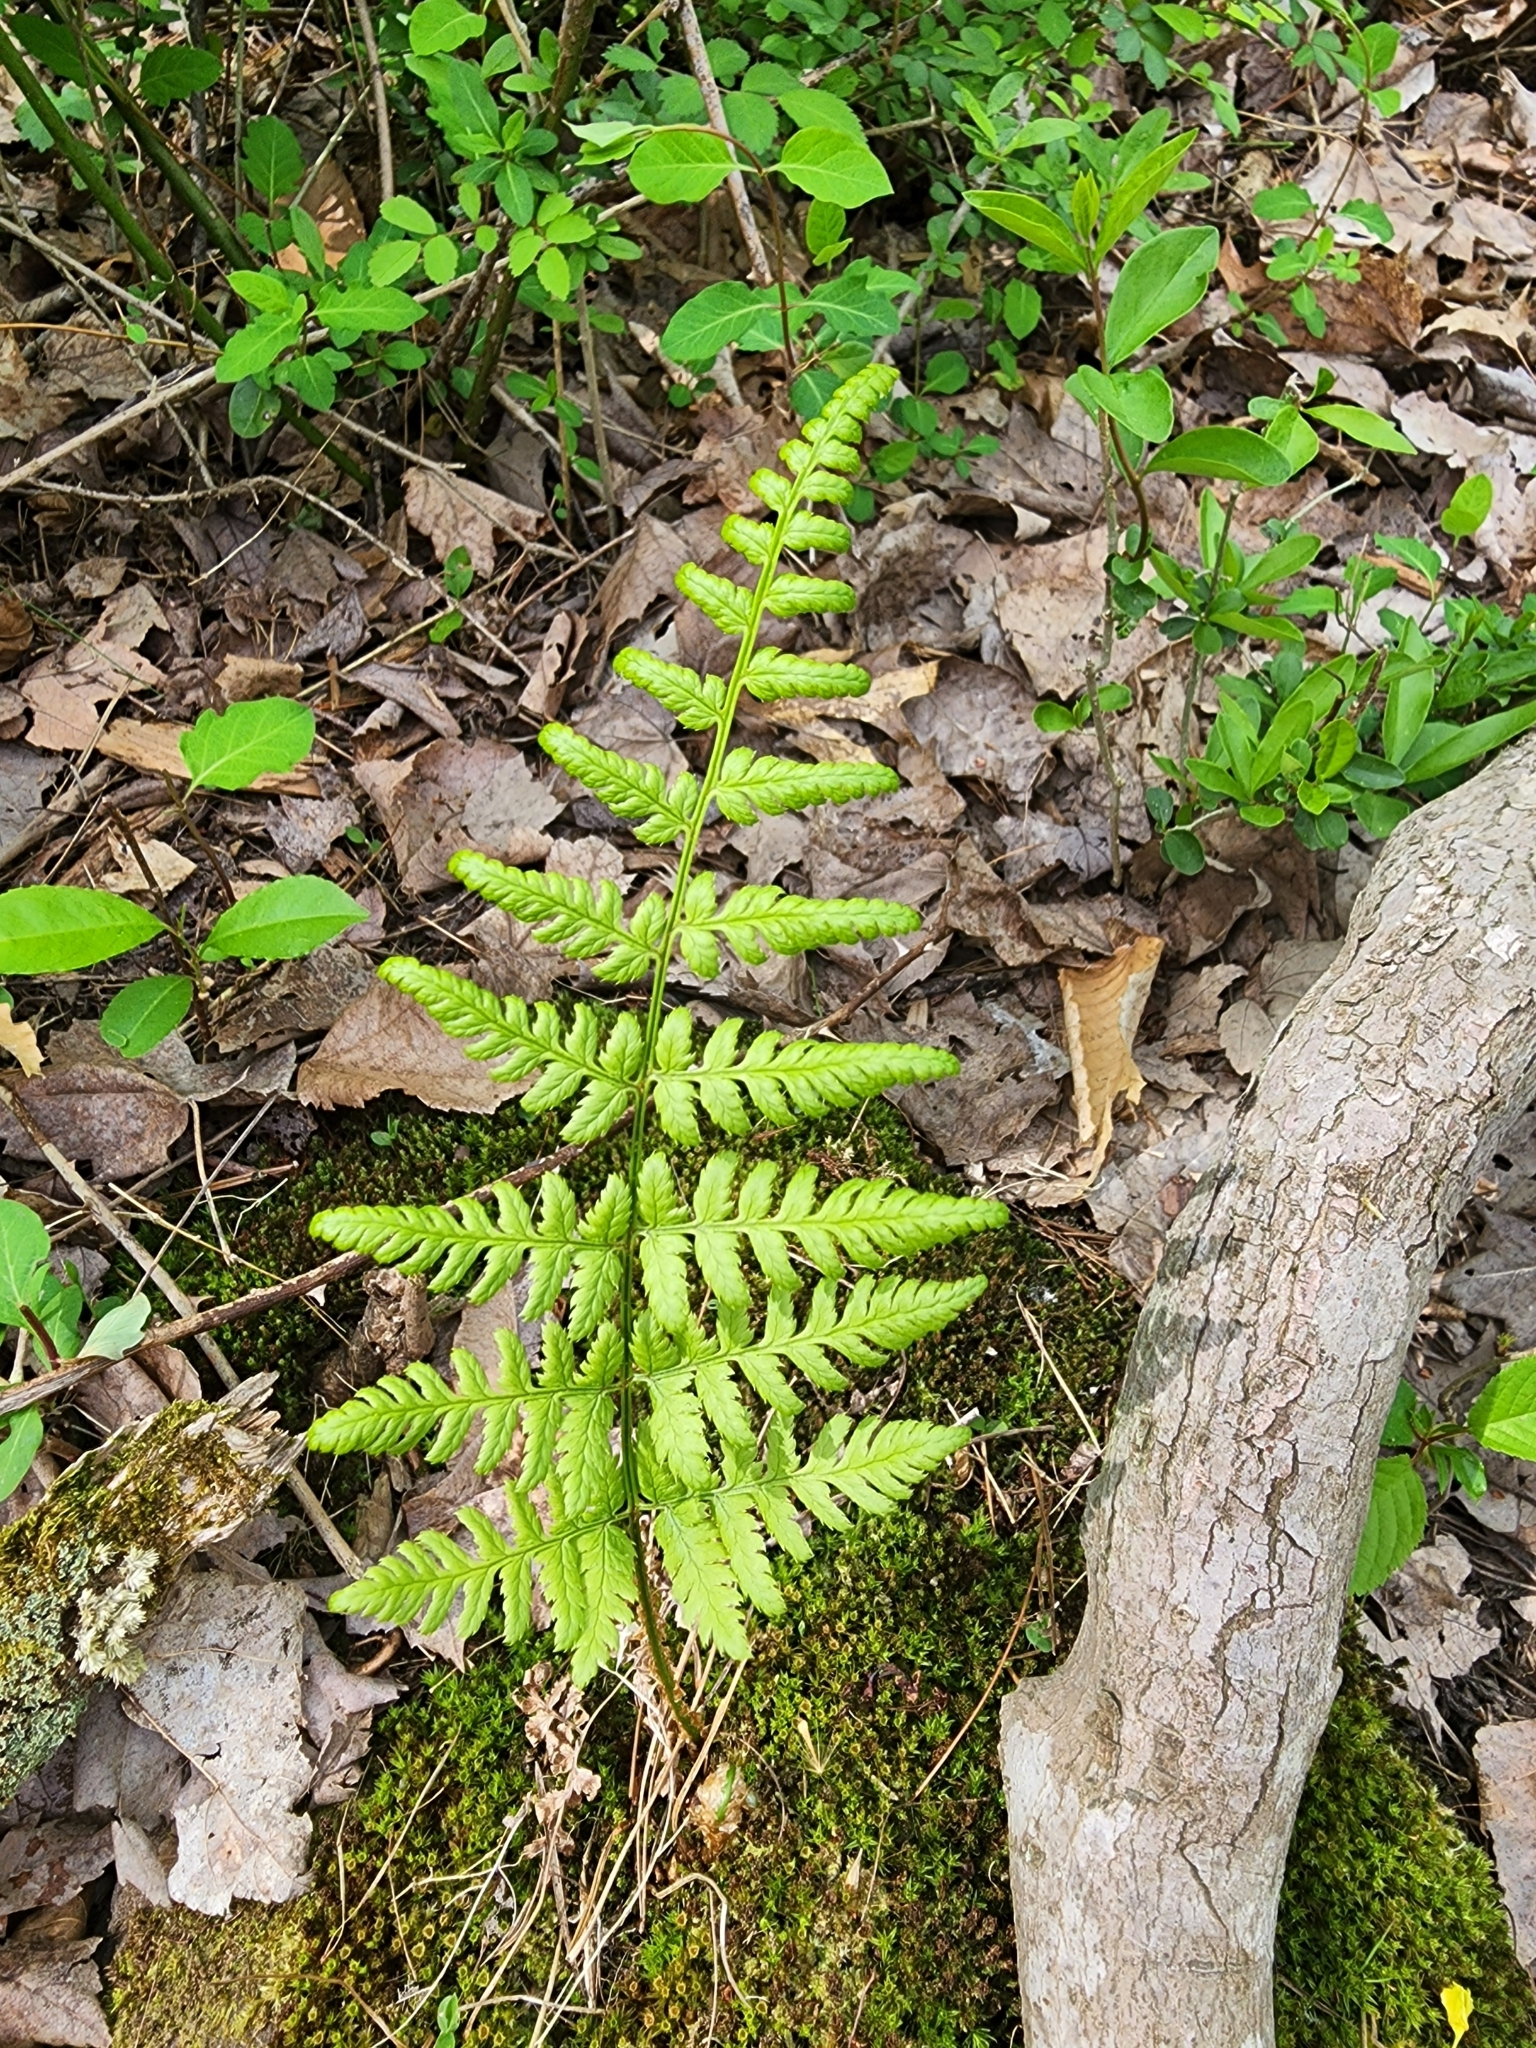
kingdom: Plantae
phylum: Tracheophyta
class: Polypodiopsida
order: Polypodiales
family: Dryopteridaceae
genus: Dryopteris
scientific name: Dryopteris carthusiana
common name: Narrow buckler-fern
